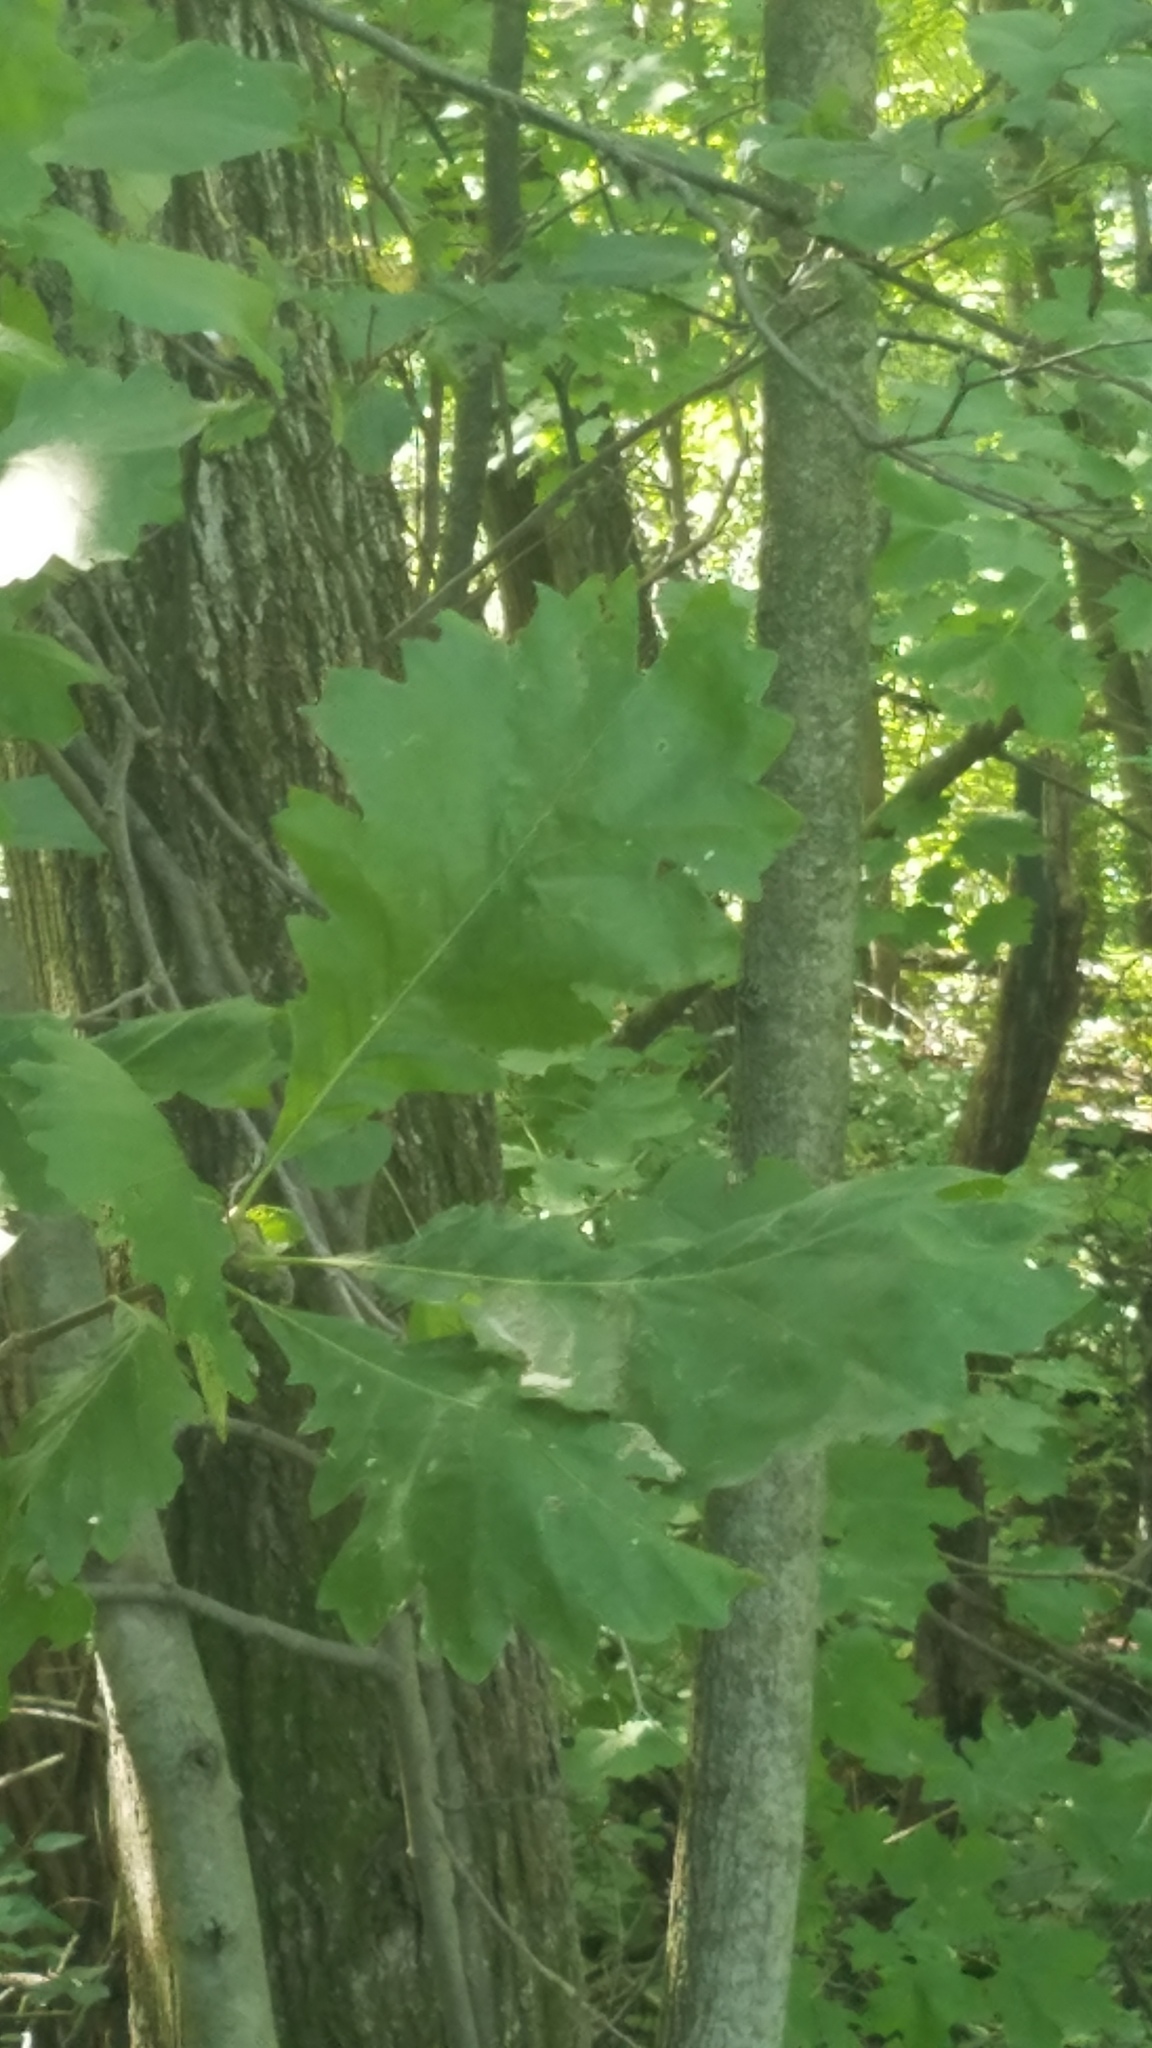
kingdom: Plantae
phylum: Tracheophyta
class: Magnoliopsida
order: Fagales
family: Fagaceae
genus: Quercus
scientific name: Quercus macrocarpa
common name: Bur oak
